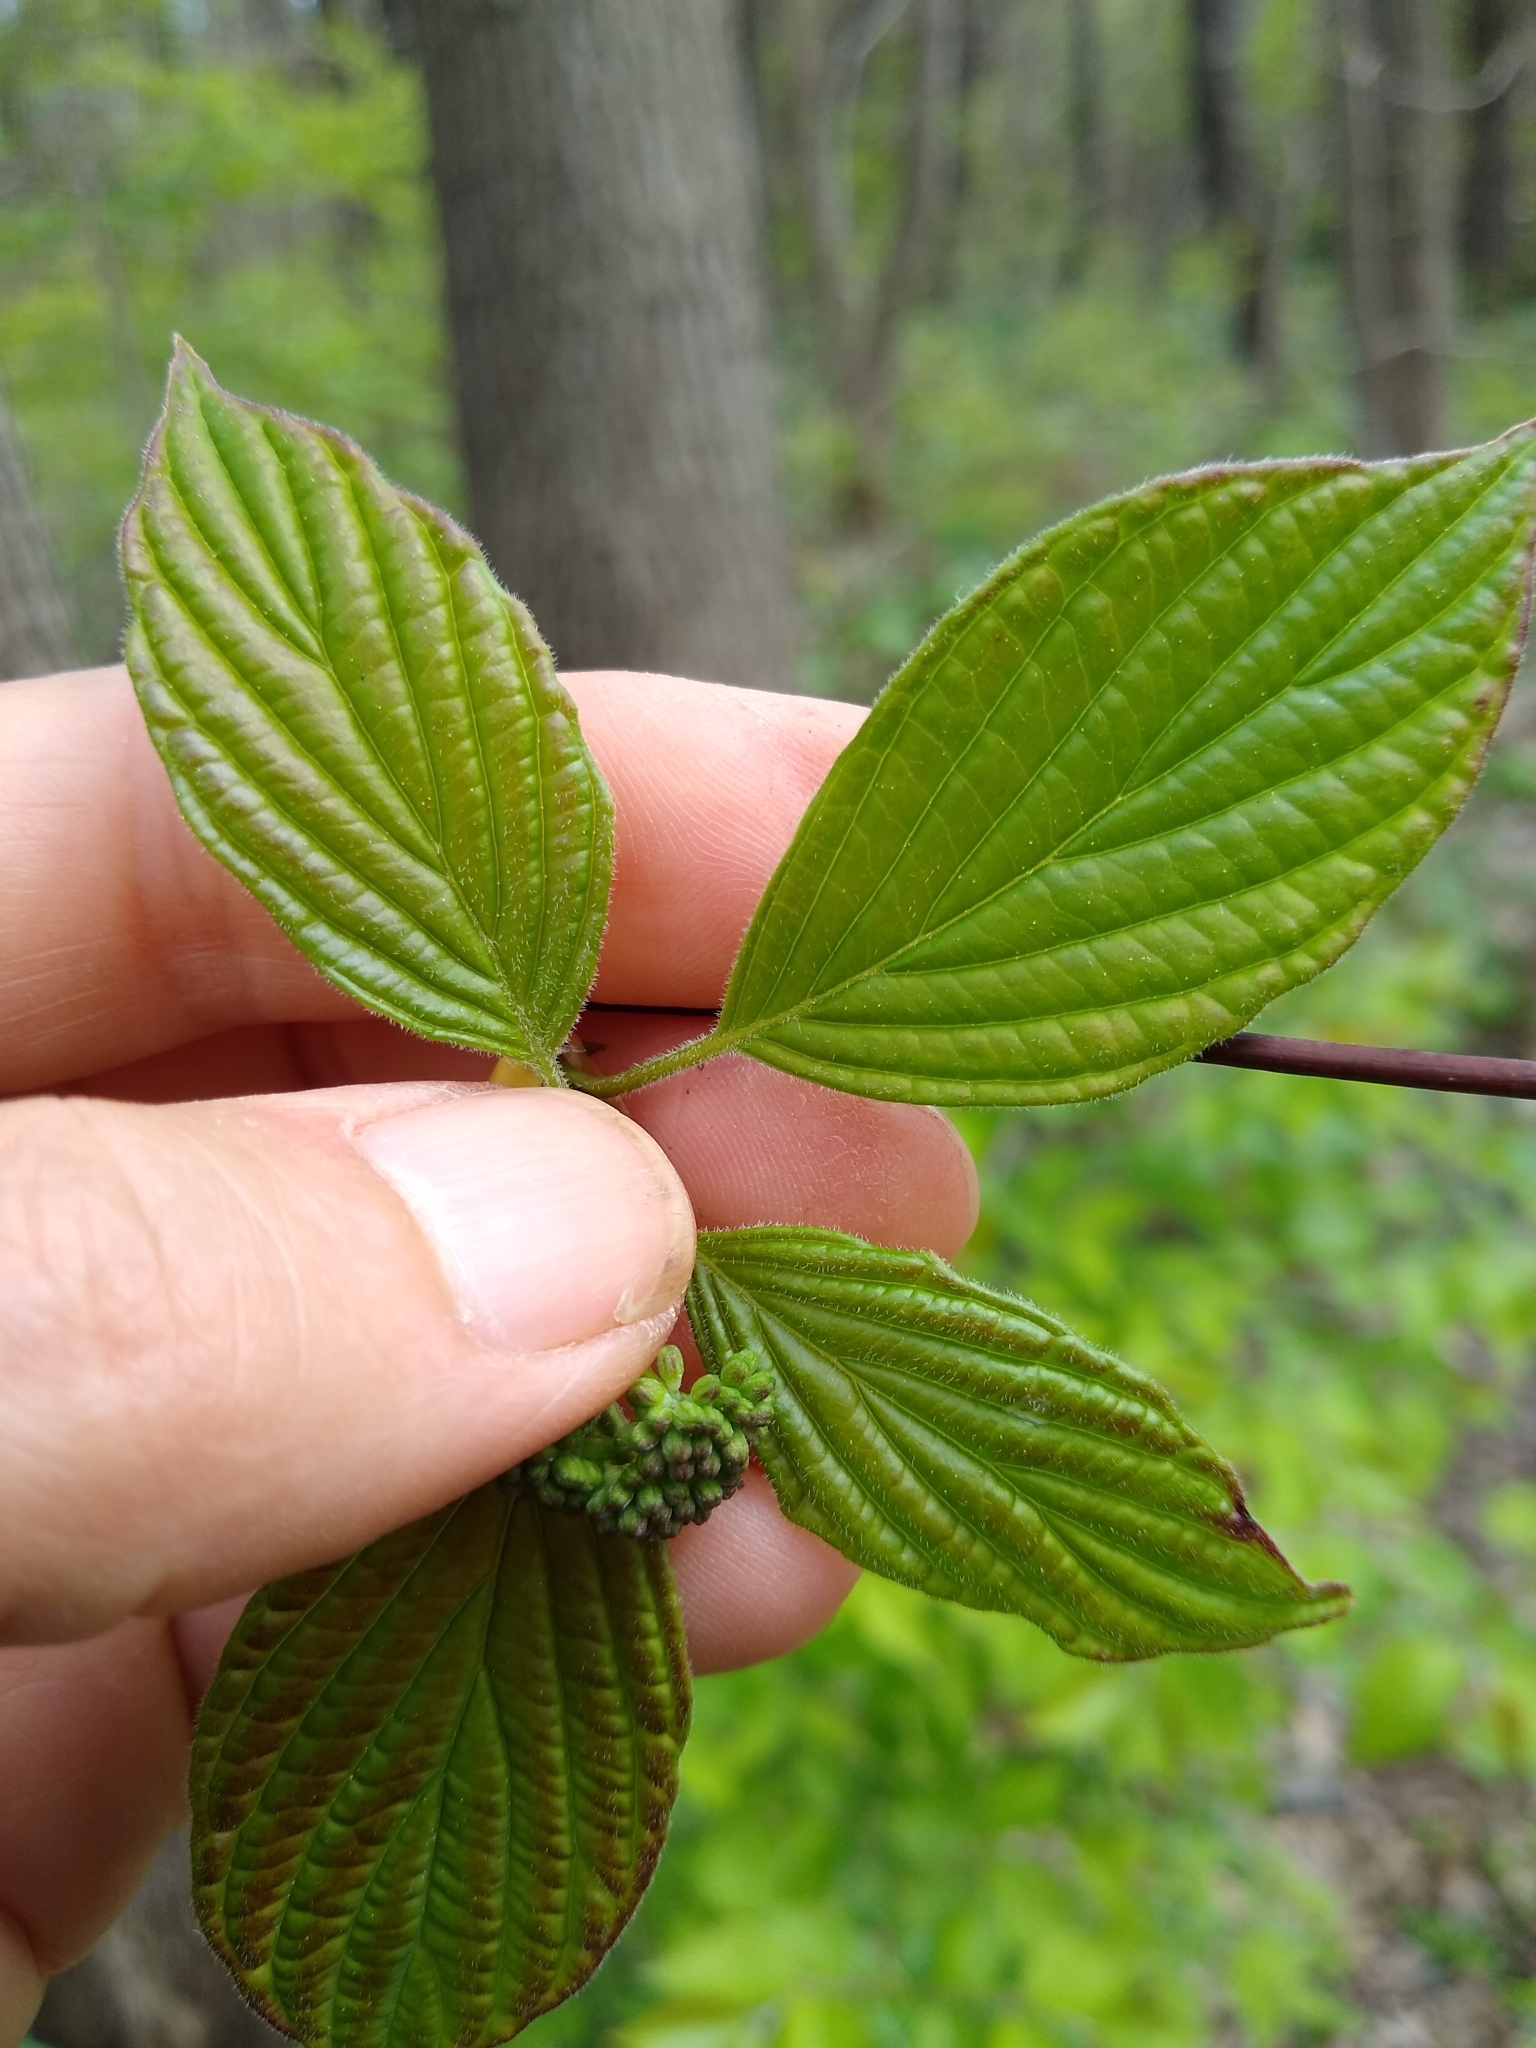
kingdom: Plantae
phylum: Tracheophyta
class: Magnoliopsida
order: Cornales
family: Cornaceae
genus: Cornus
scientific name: Cornus alternifolia
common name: Pagoda dogwood
